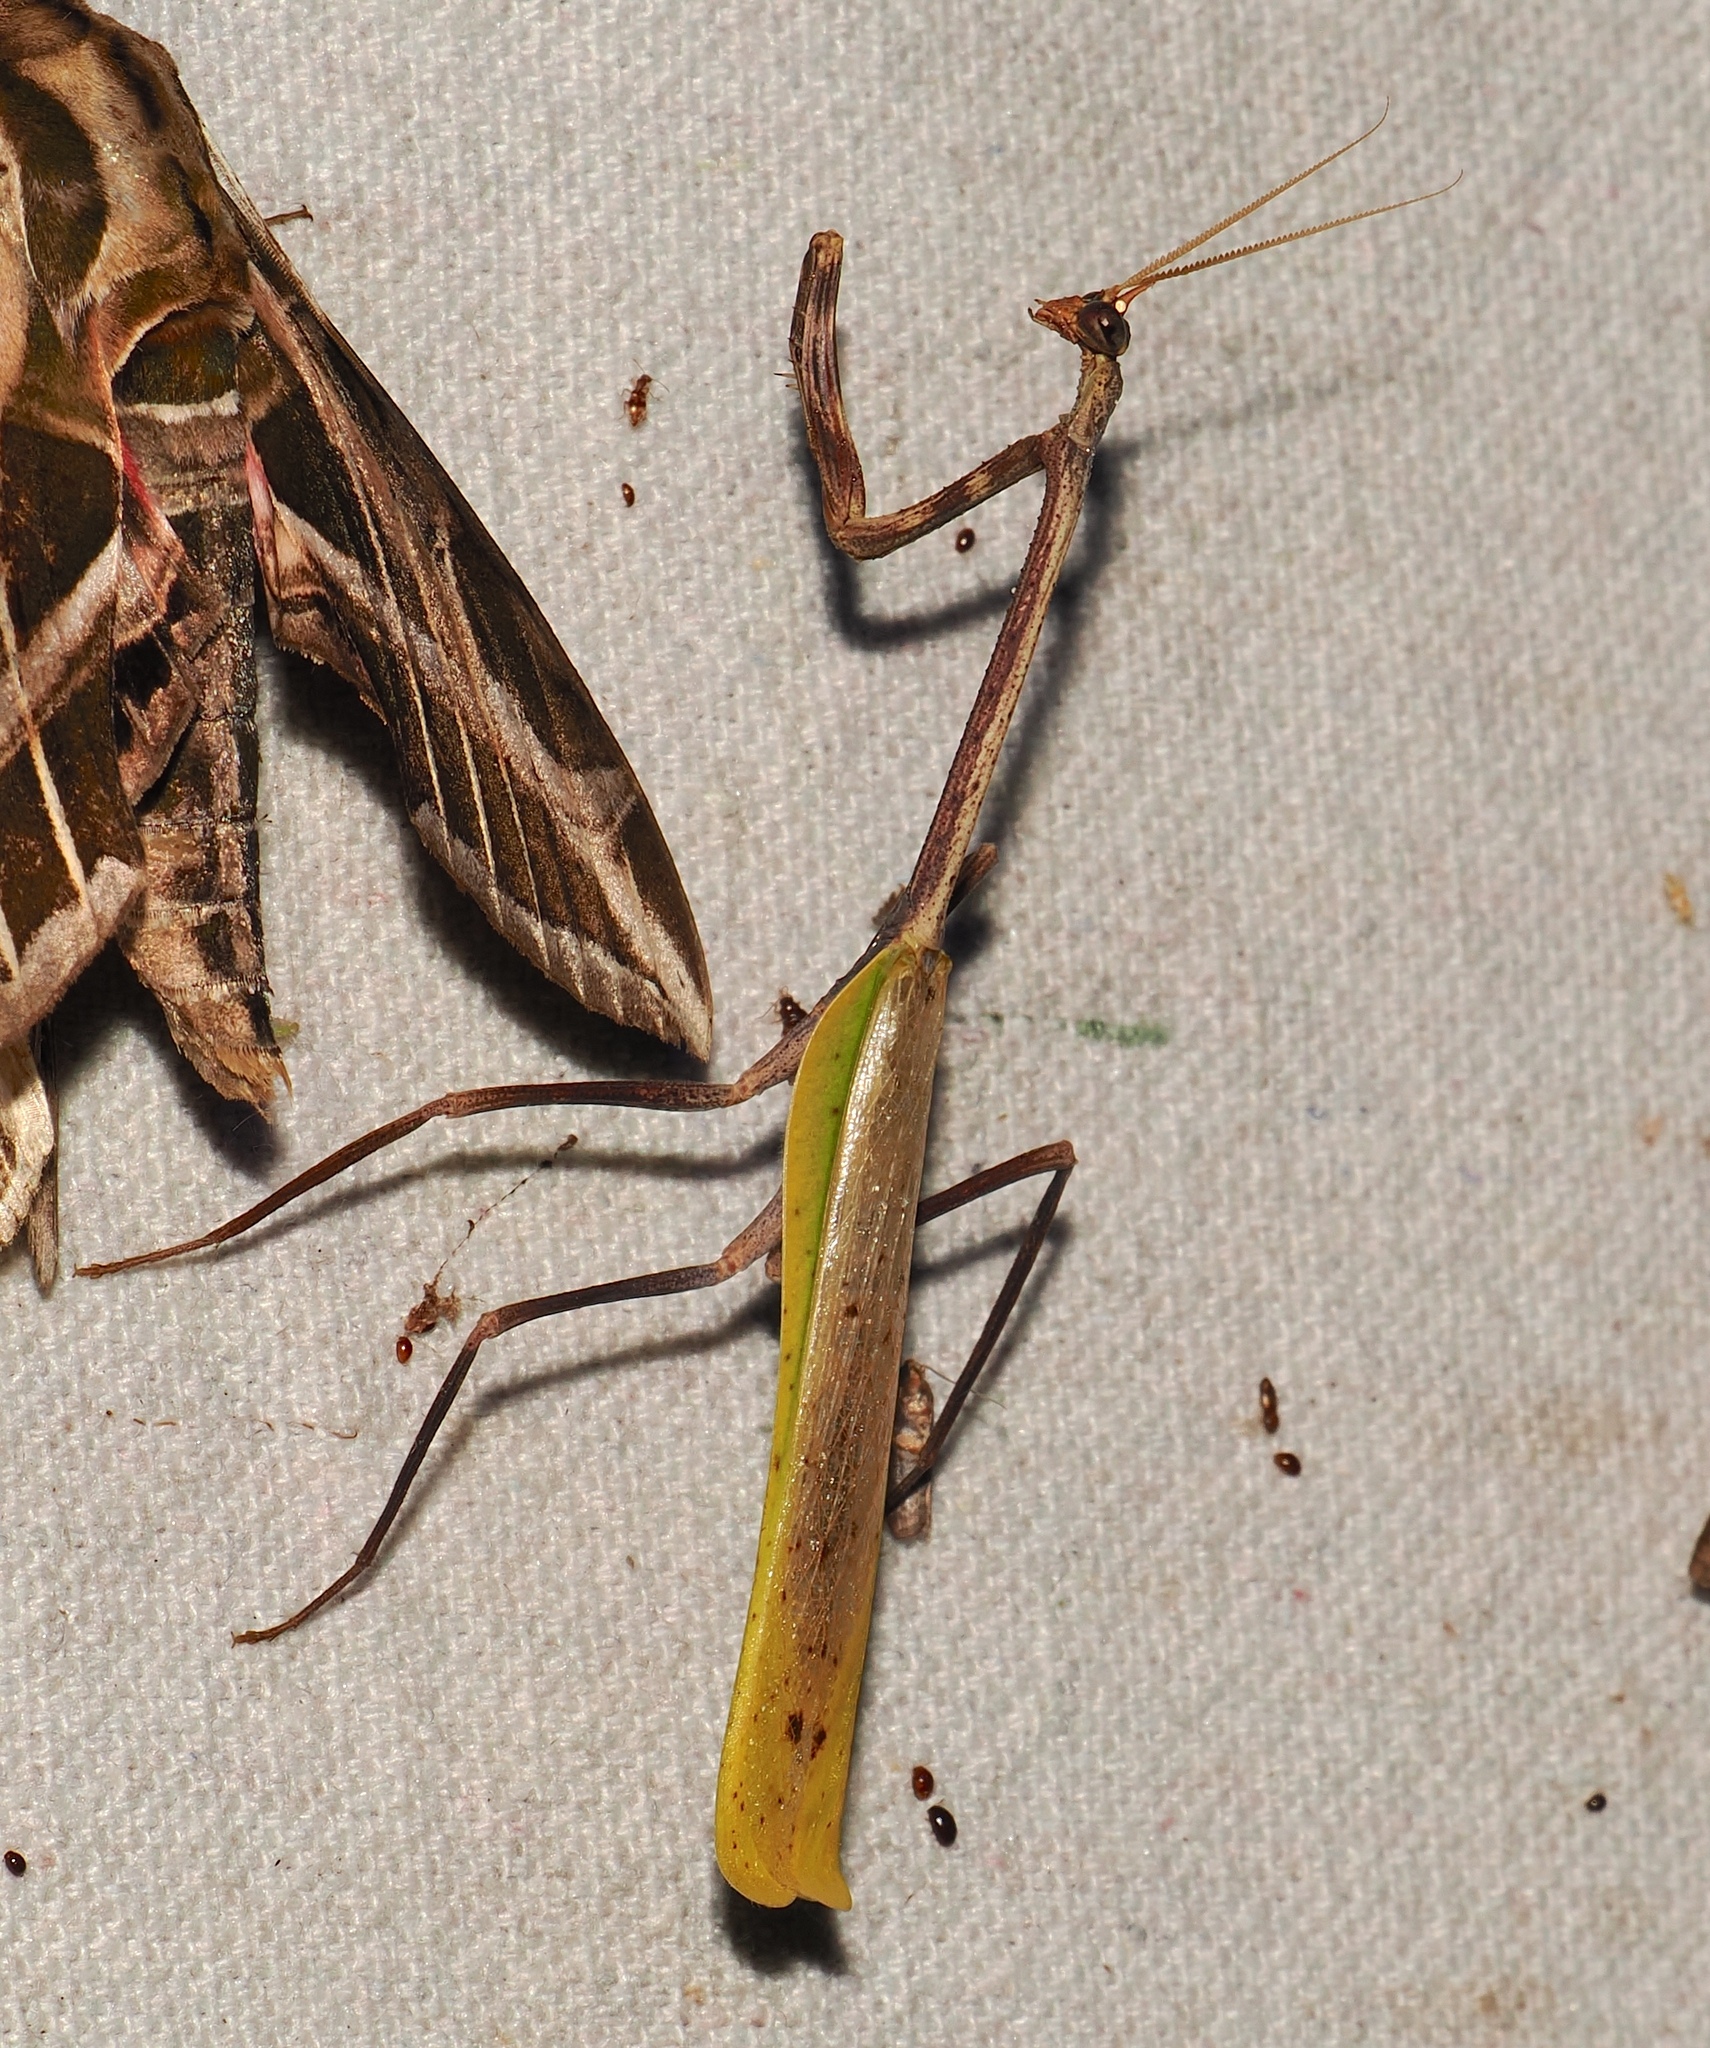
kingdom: Animalia
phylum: Arthropoda
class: Insecta
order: Mantodea
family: Mantidae
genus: Pseudovates
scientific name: Pseudovates chlorophaea
